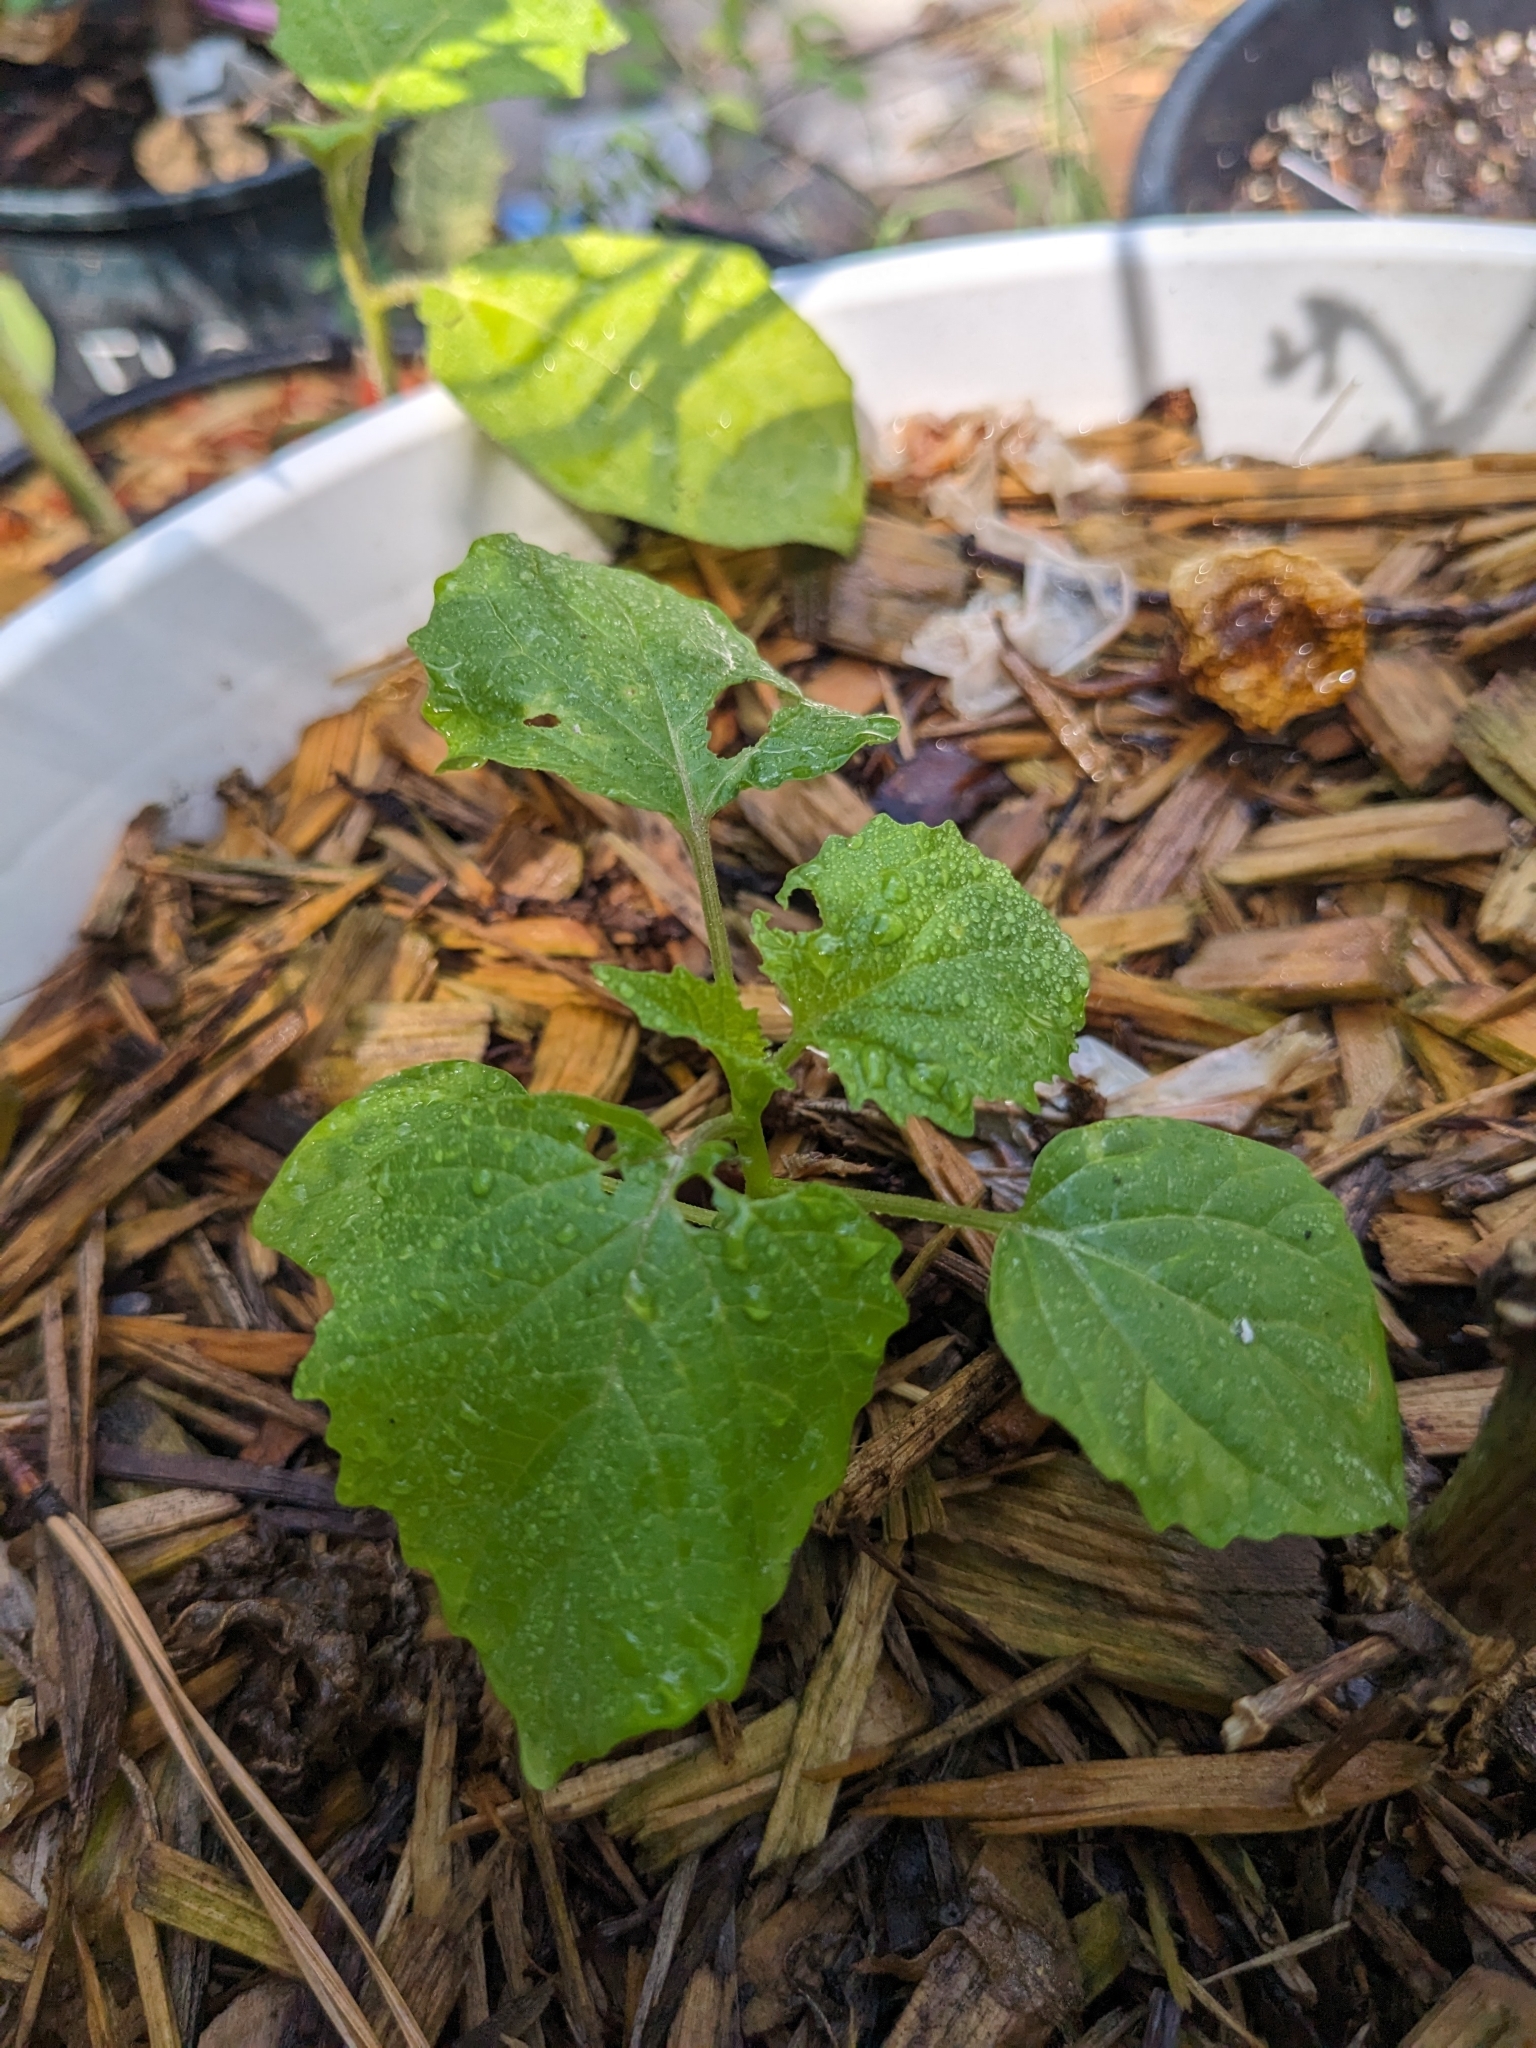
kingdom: Plantae
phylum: Tracheophyta
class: Magnoliopsida
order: Solanales
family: Solanaceae
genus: Physalis
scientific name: Physalis cordata
